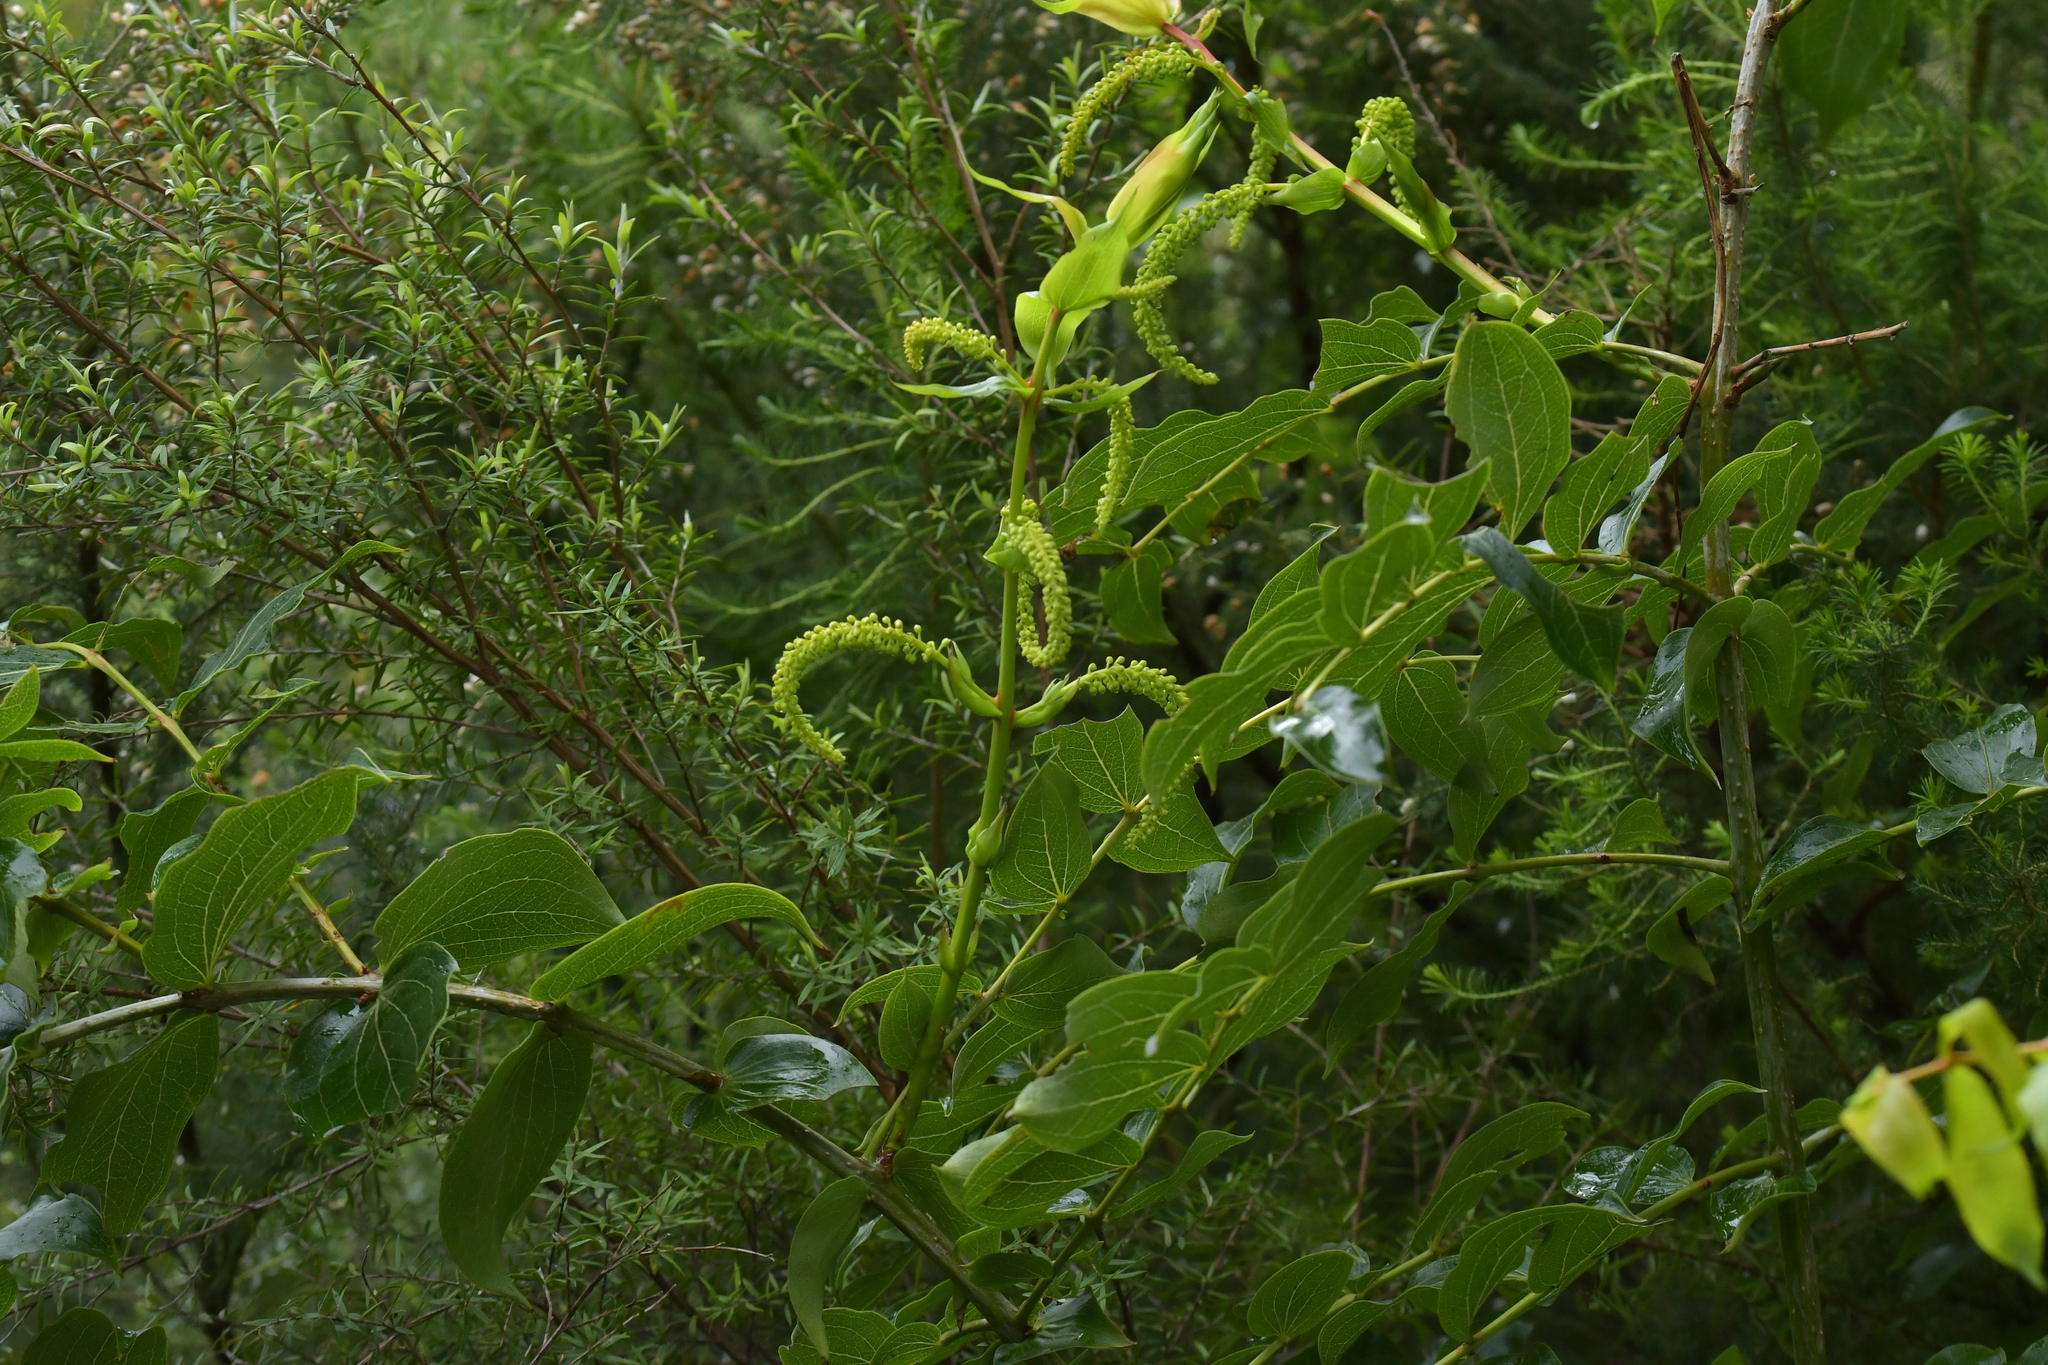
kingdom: Plantae
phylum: Tracheophyta
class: Magnoliopsida
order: Cucurbitales
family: Coriariaceae
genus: Coriaria
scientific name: Coriaria arborea
